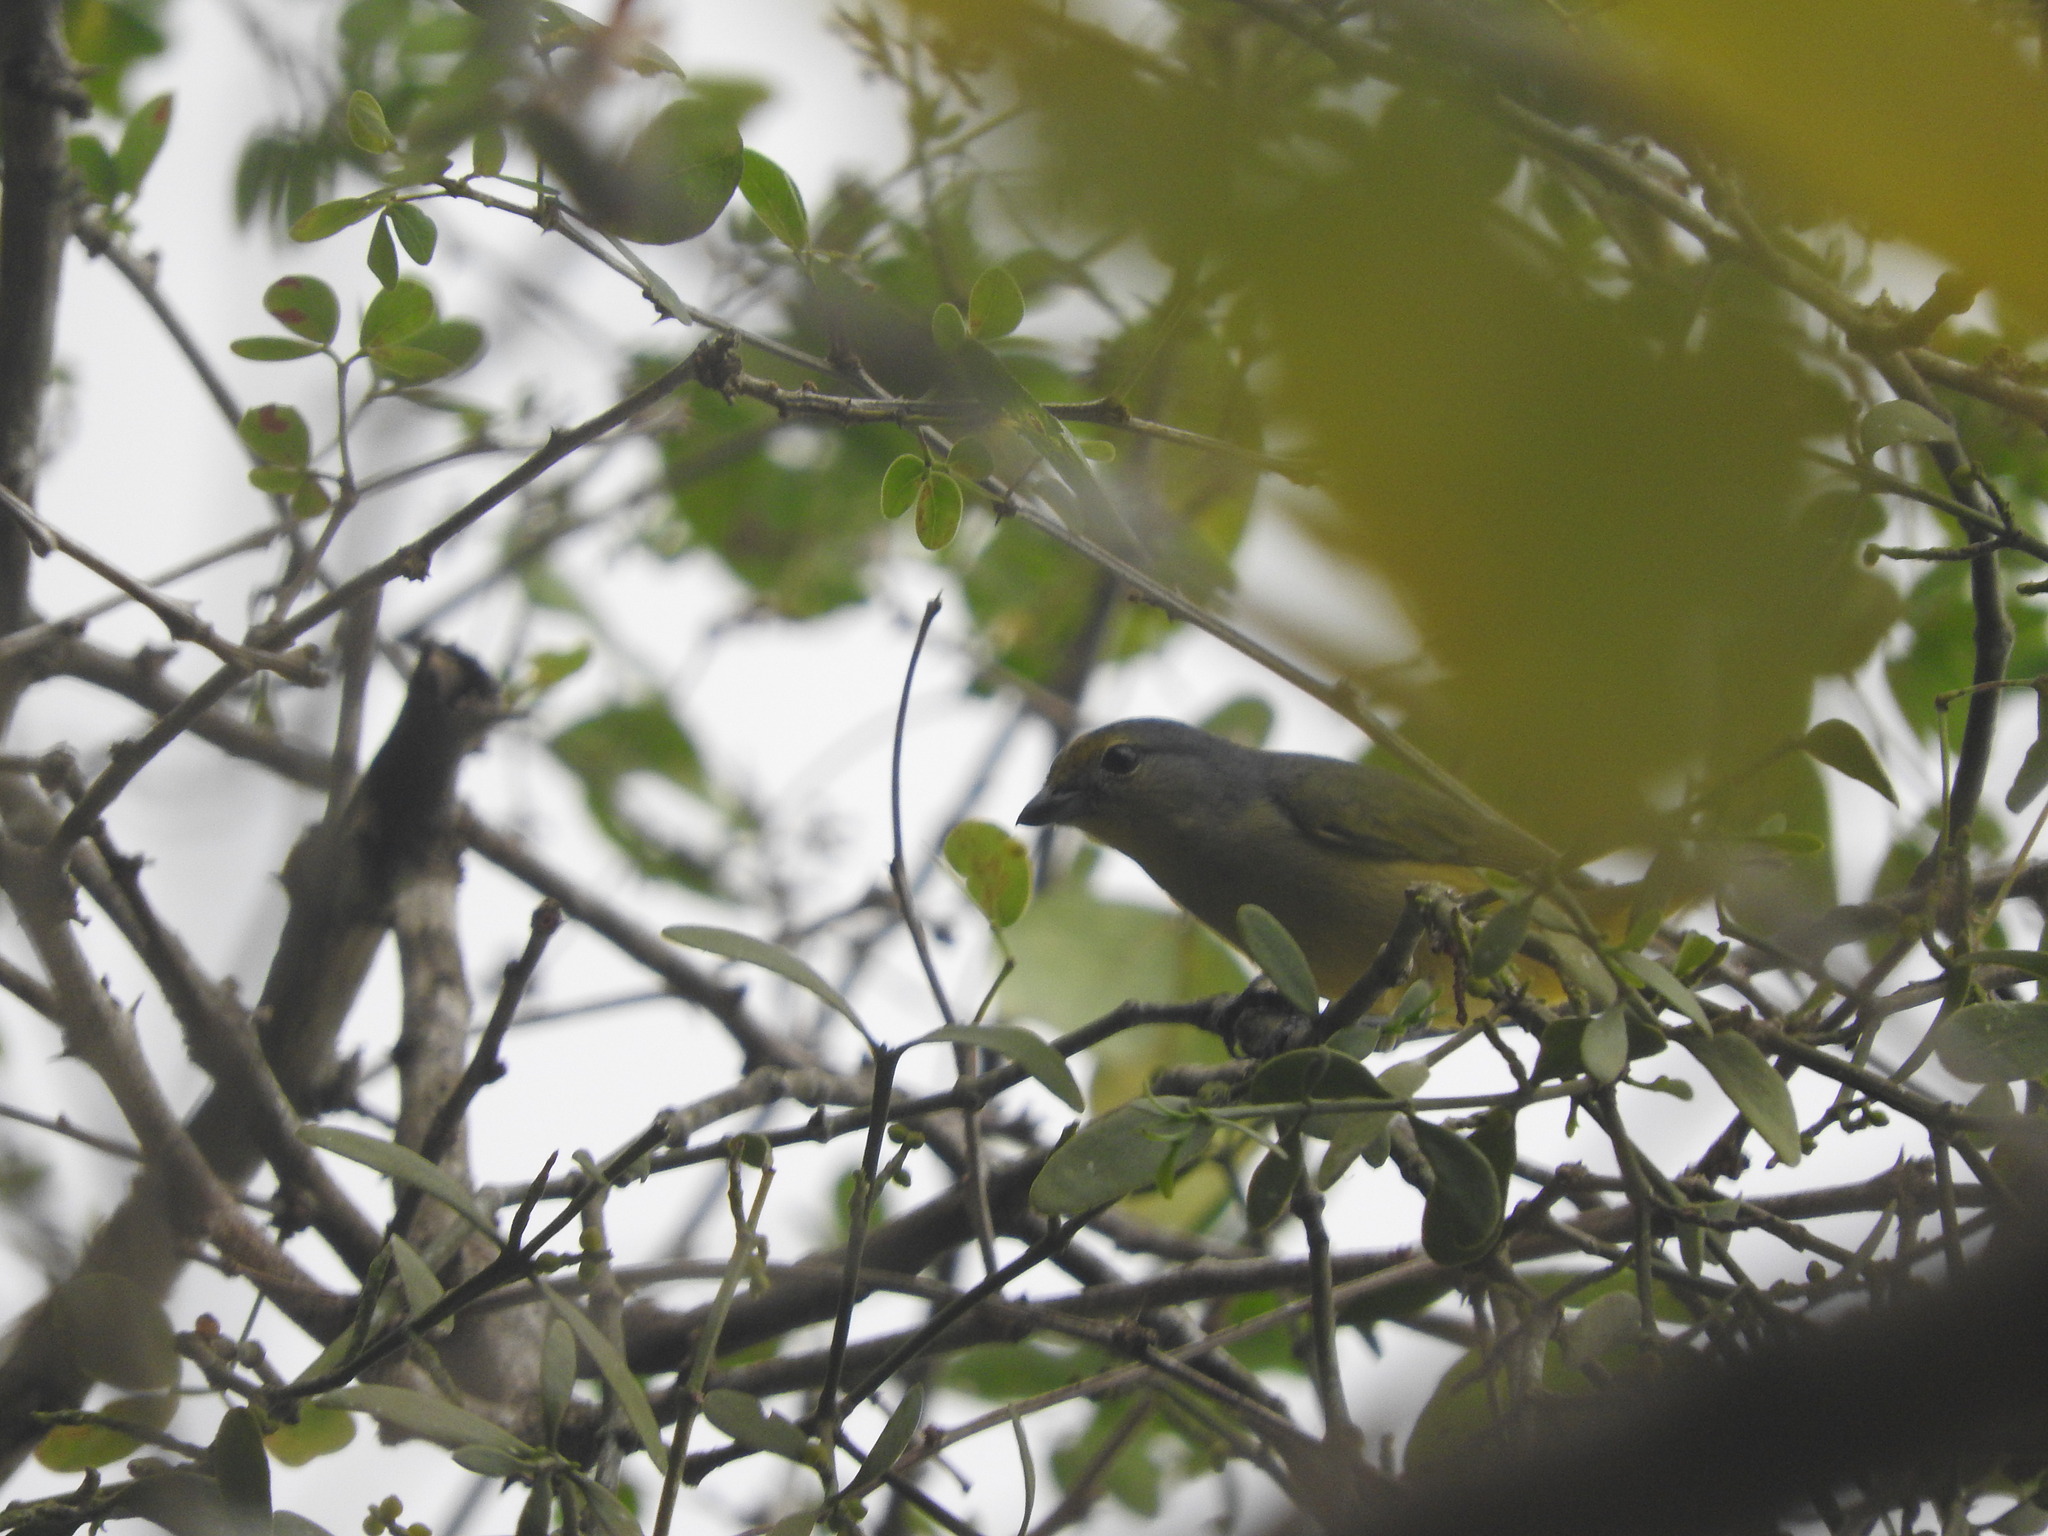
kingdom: Animalia
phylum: Chordata
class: Aves
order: Passeriformes
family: Fringillidae
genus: Euphonia
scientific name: Euphonia affinis
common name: Scrub euphonia
